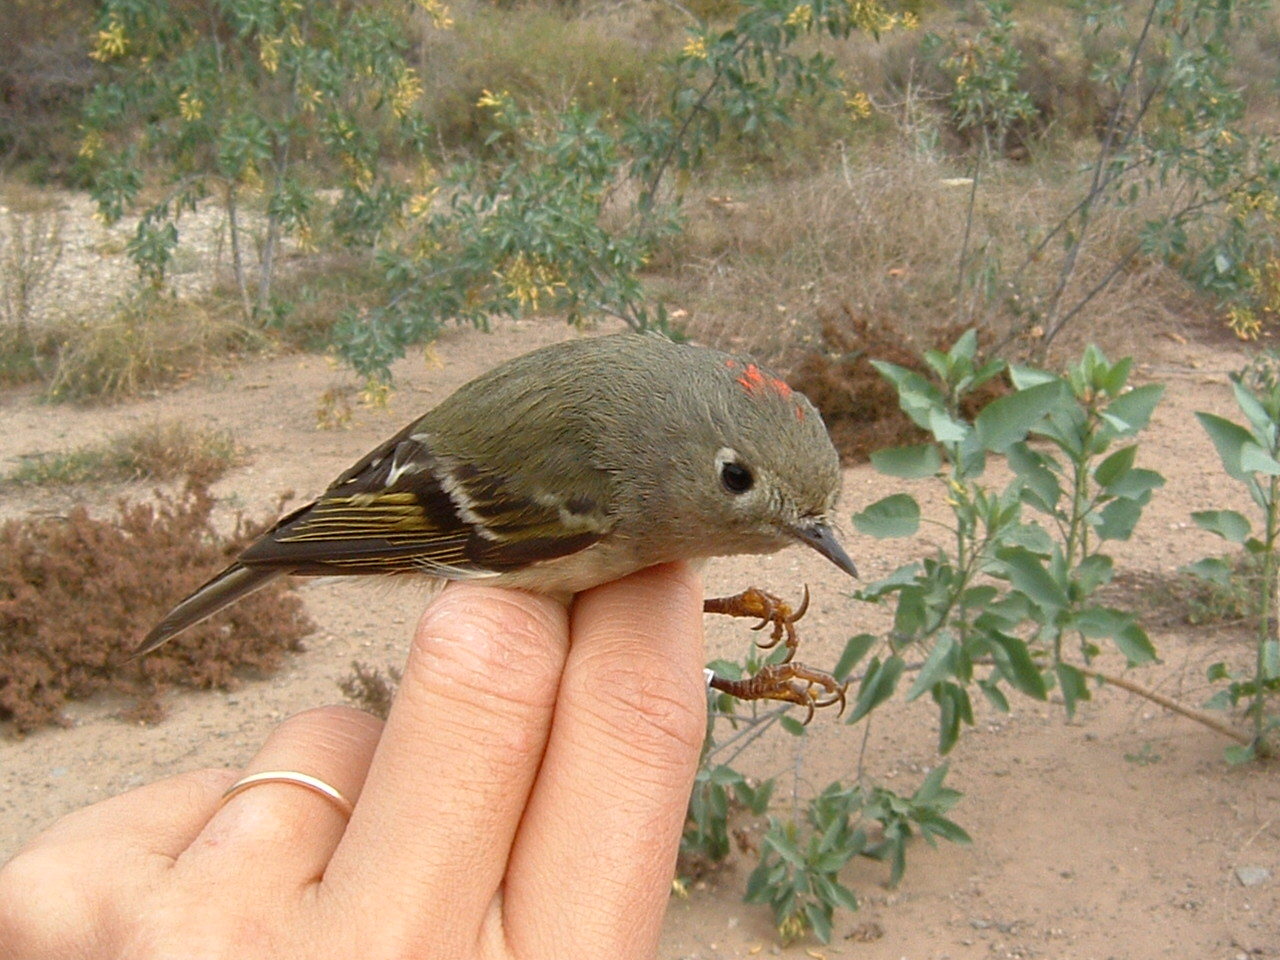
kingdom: Animalia
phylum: Chordata
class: Aves
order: Passeriformes
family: Regulidae
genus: Regulus
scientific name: Regulus calendula
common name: Ruby-crowned kinglet
